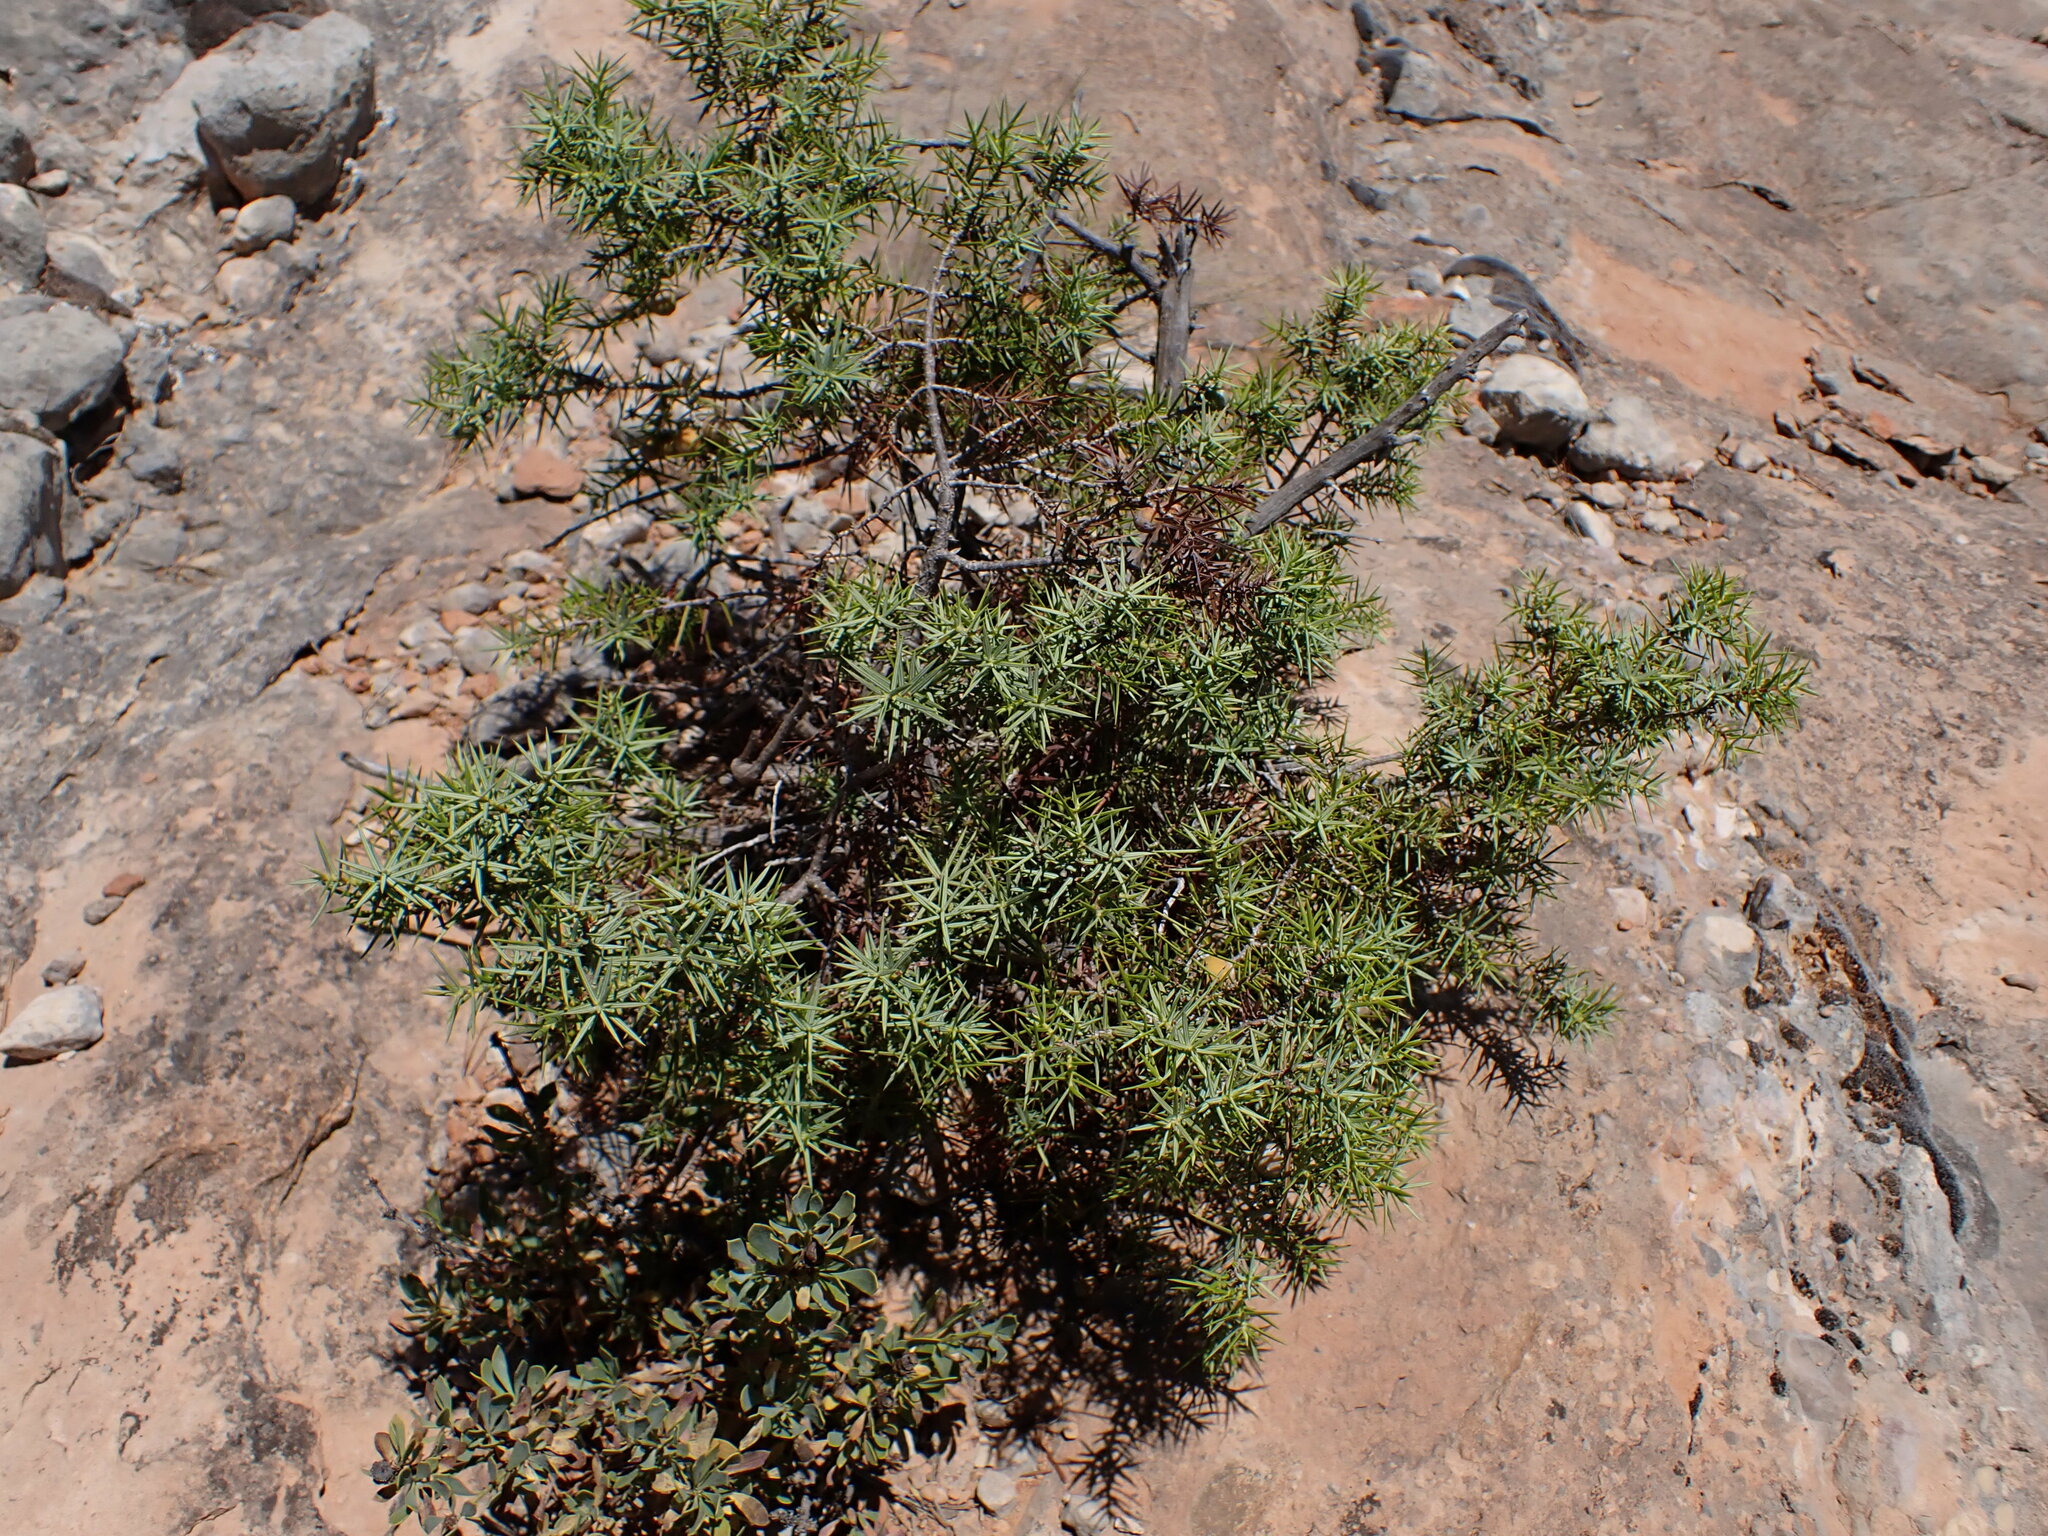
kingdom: Plantae
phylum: Tracheophyta
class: Pinopsida
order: Pinales
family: Cupressaceae
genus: Juniperus
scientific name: Juniperus oxycedrus
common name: Prickly juniper
